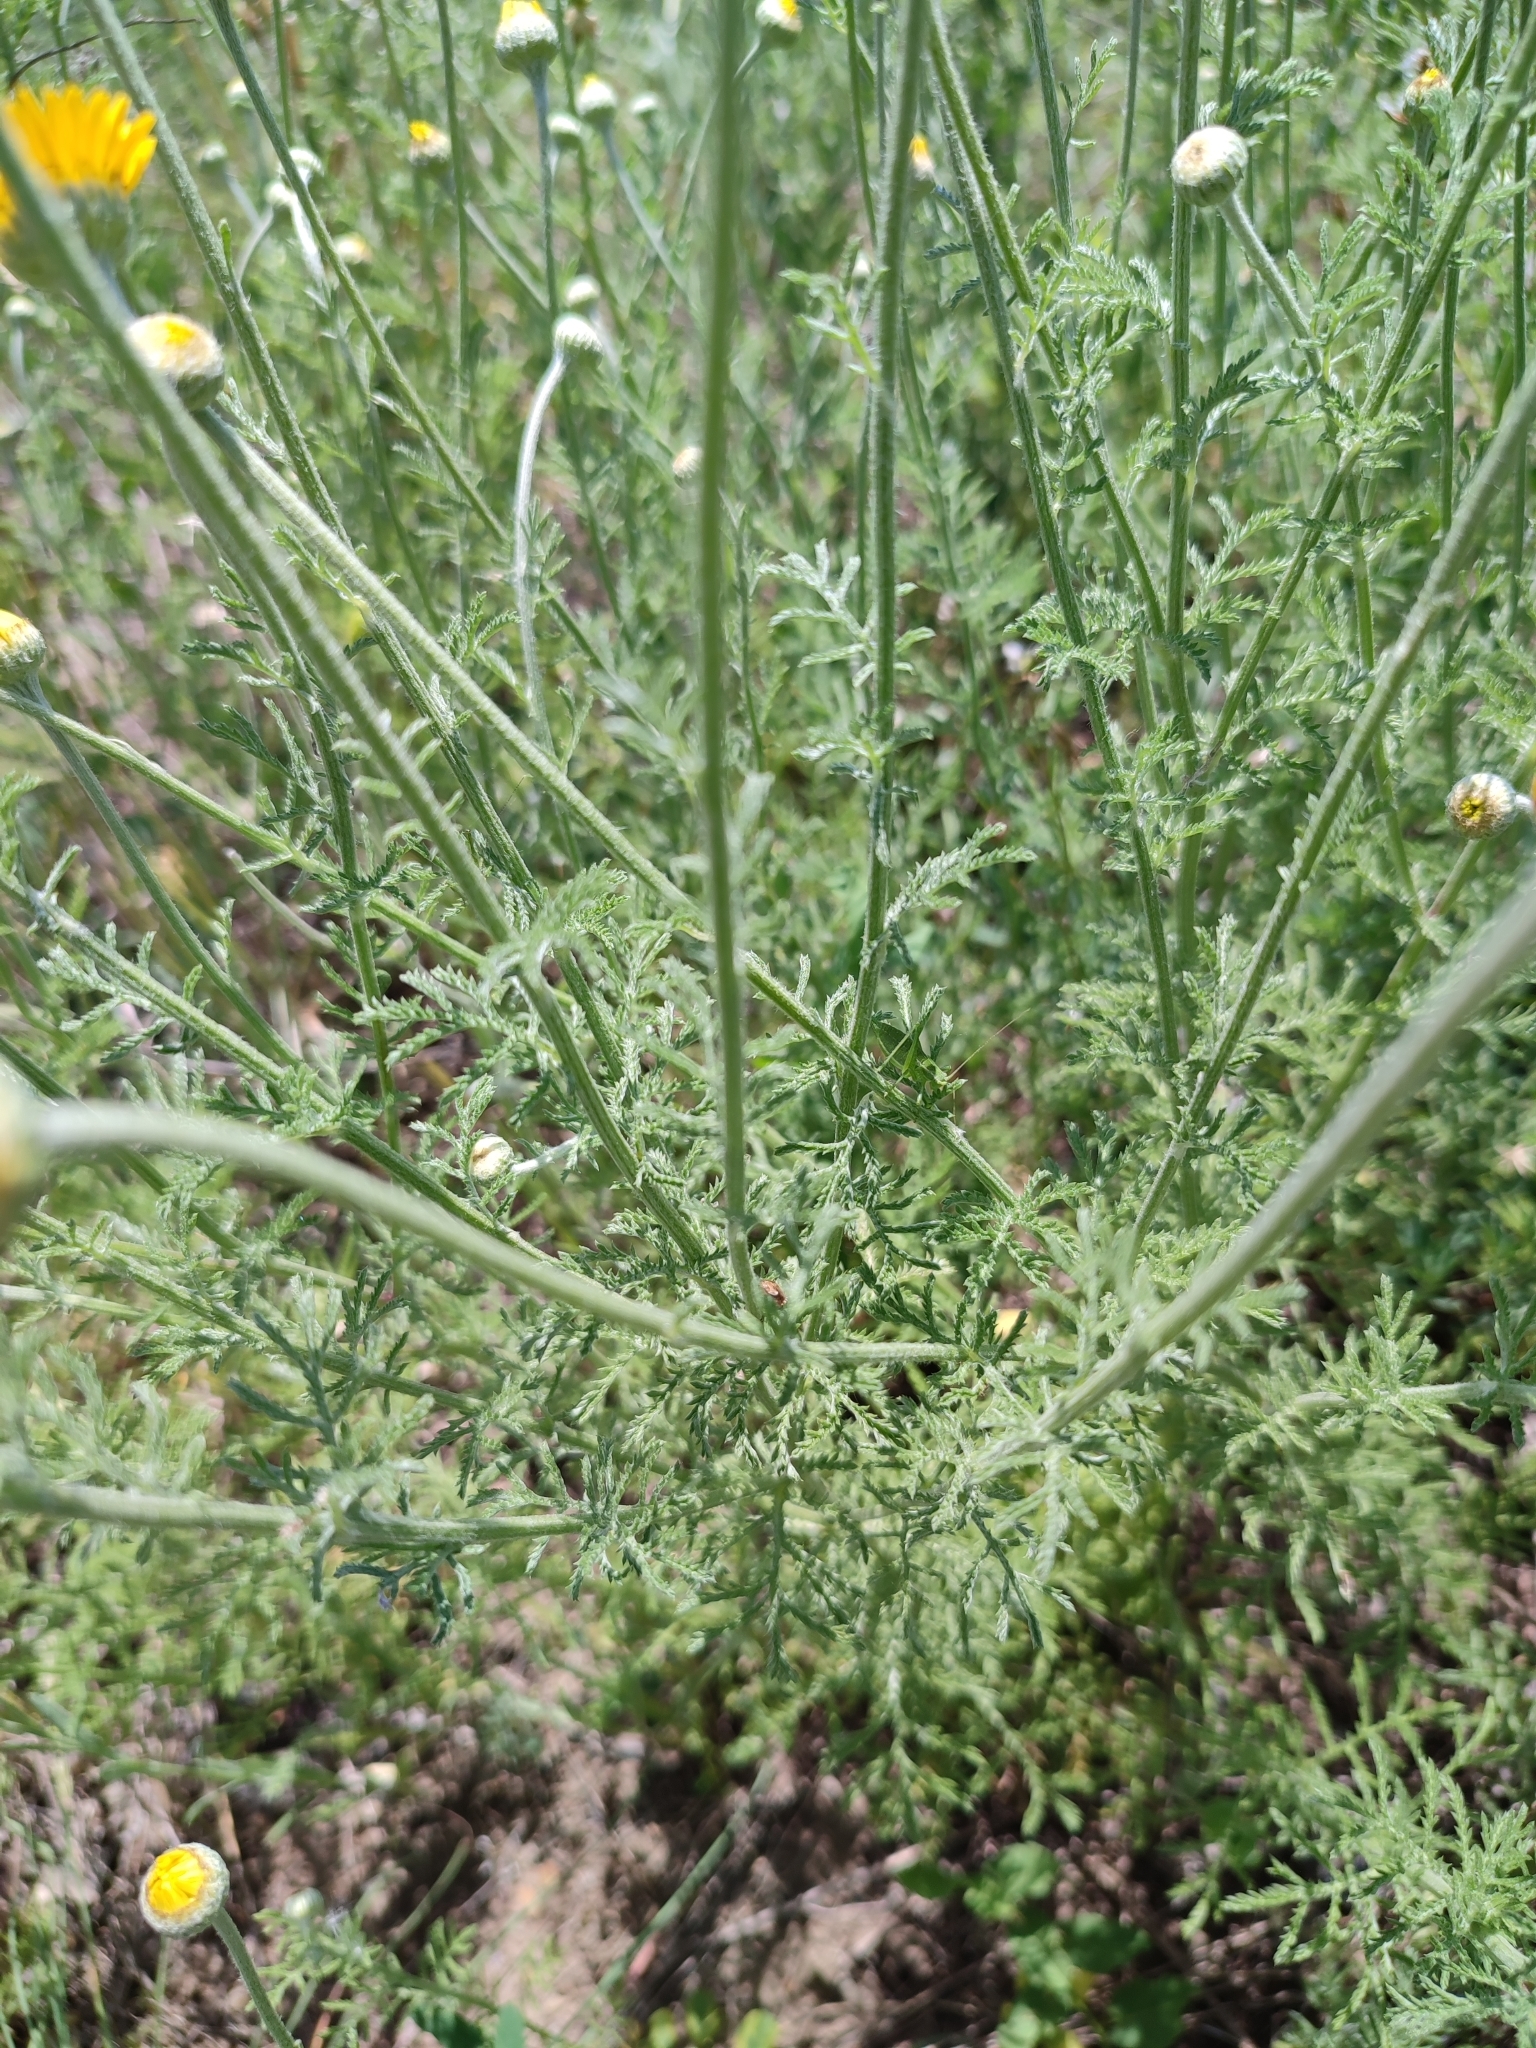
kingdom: Plantae
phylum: Tracheophyta
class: Magnoliopsida
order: Asterales
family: Asteraceae
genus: Cota
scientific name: Cota tinctoria
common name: Golden chamomile
